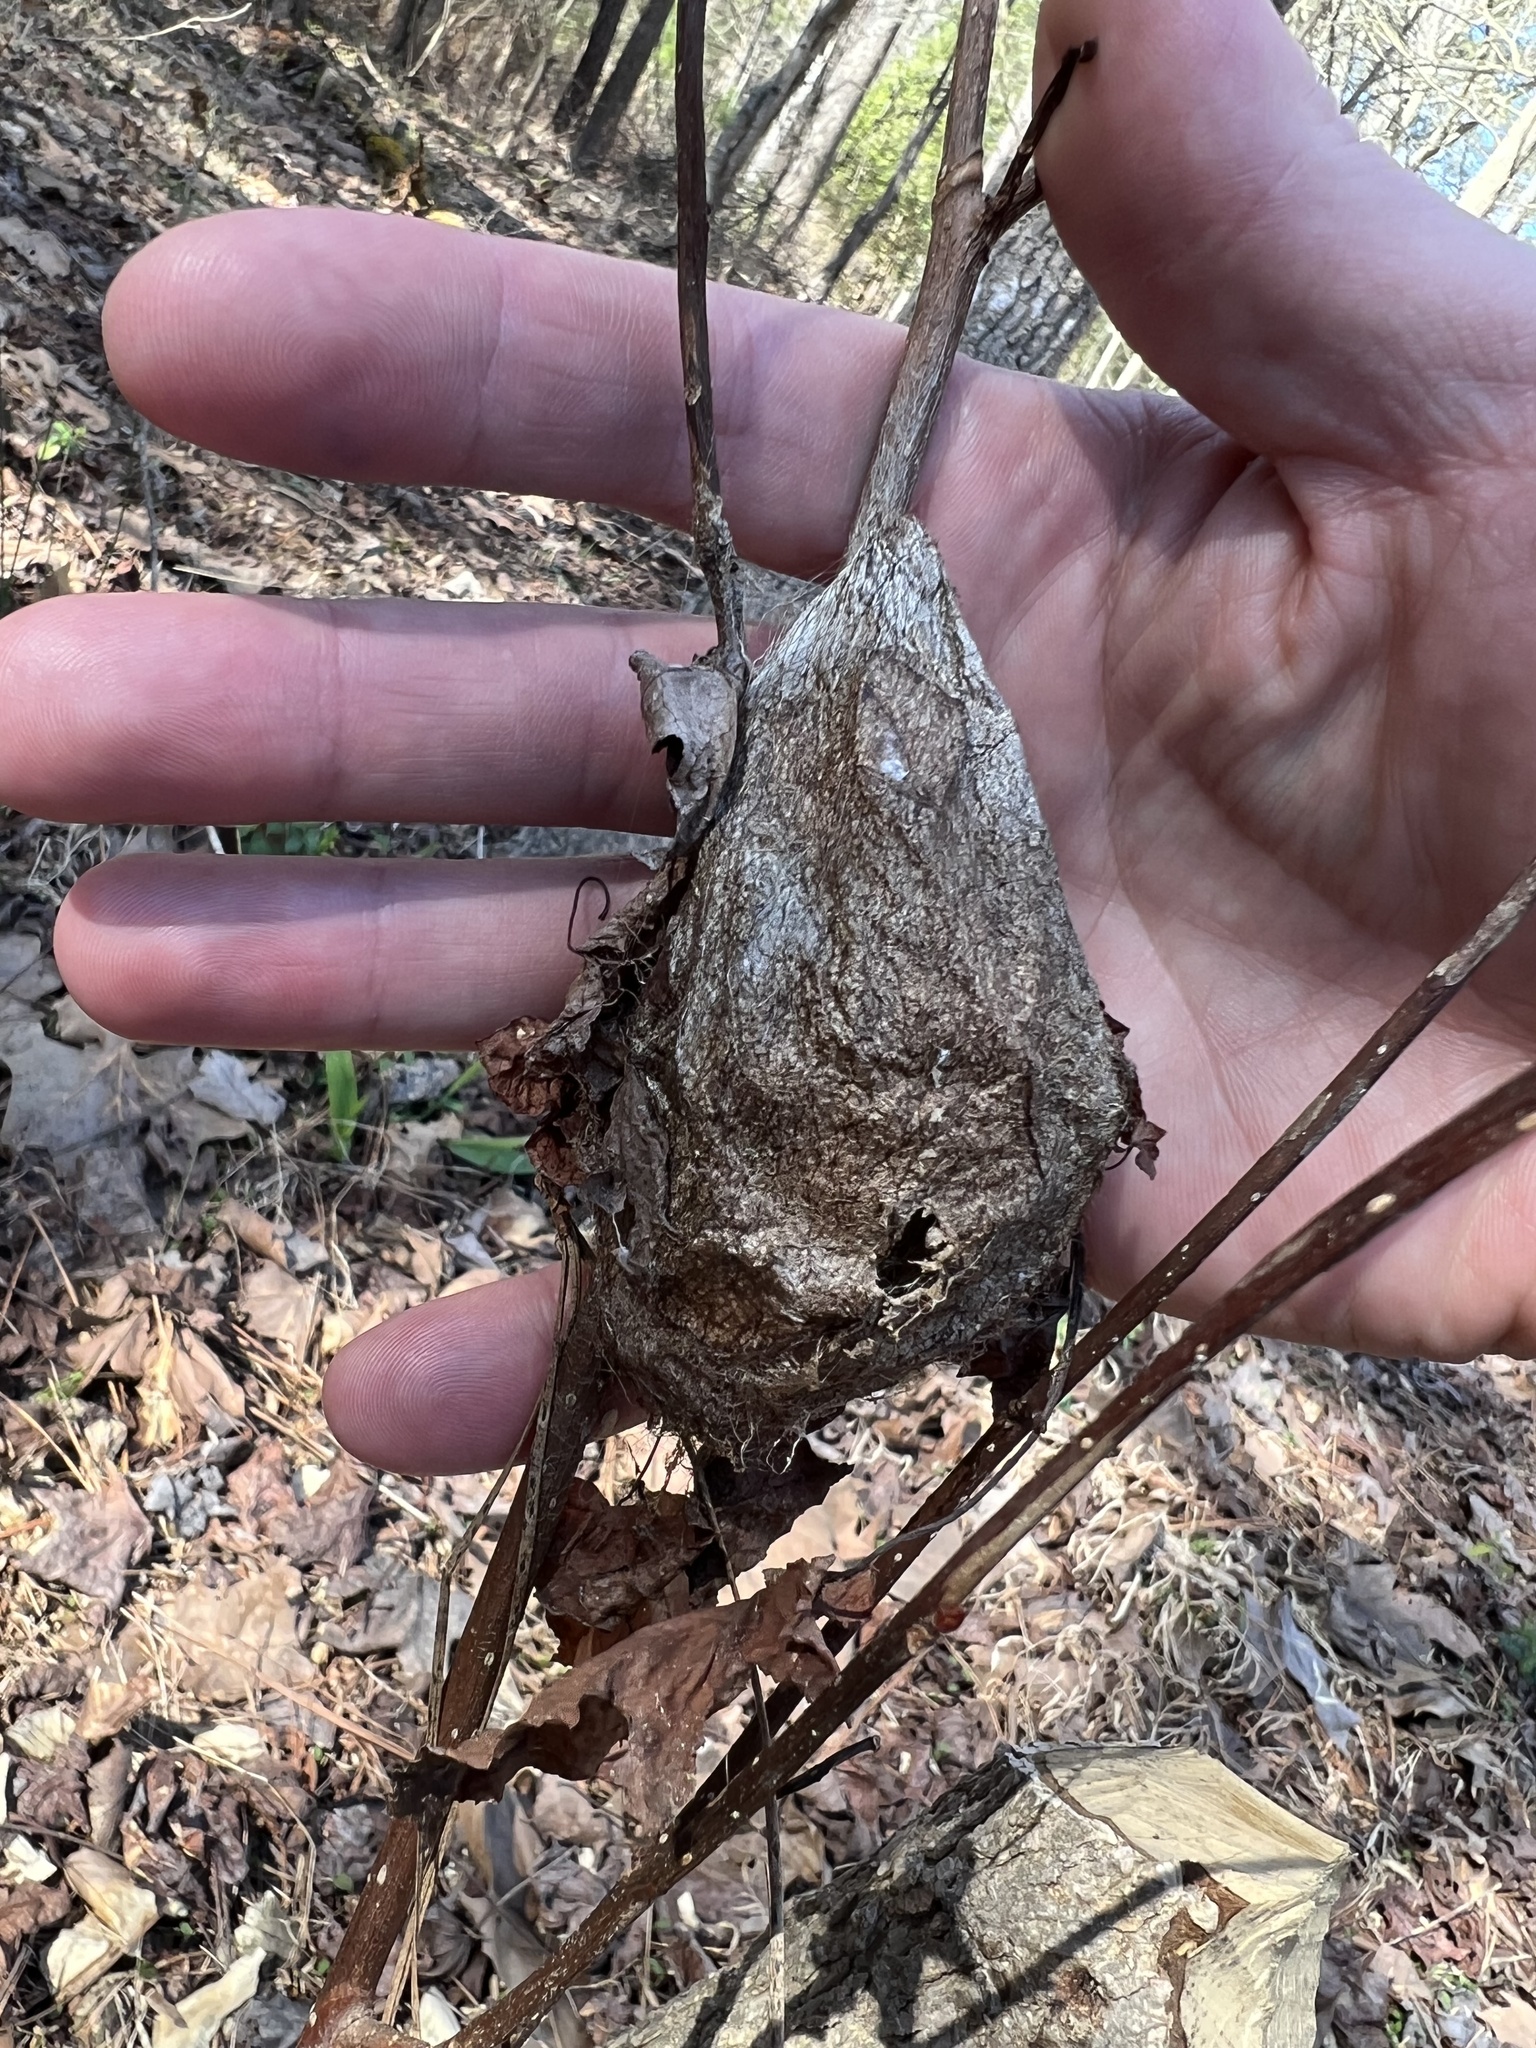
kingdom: Animalia
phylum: Arthropoda
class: Insecta
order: Lepidoptera
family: Saturniidae
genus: Hyalophora
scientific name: Hyalophora cecropia
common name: Cecropia silkmoth
